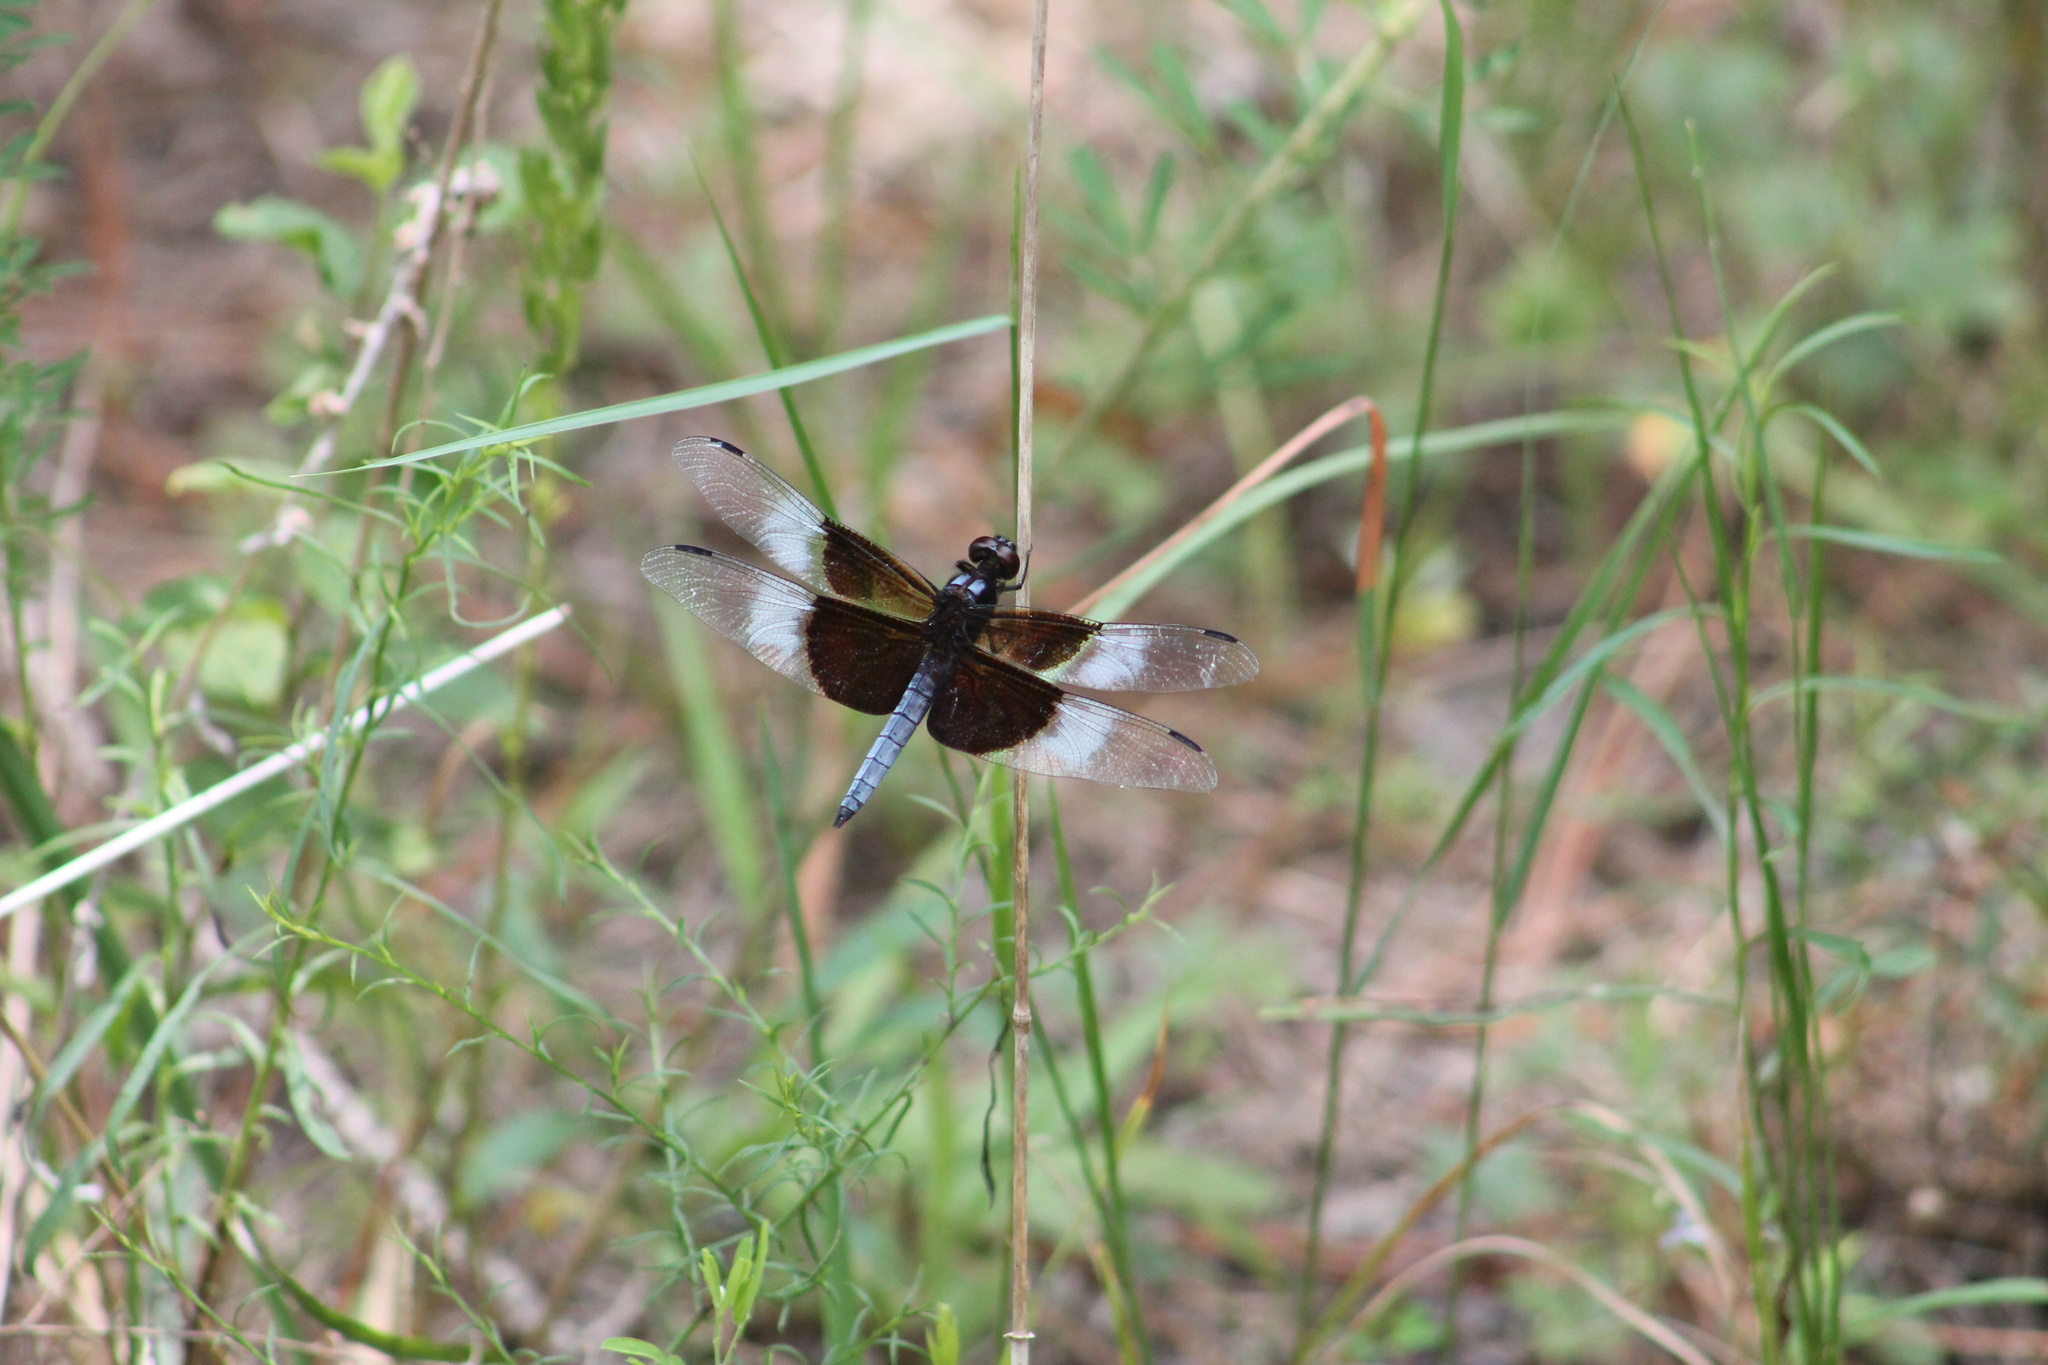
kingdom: Animalia
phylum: Arthropoda
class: Insecta
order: Odonata
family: Libellulidae
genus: Libellula
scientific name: Libellula luctuosa
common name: Widow skimmer
